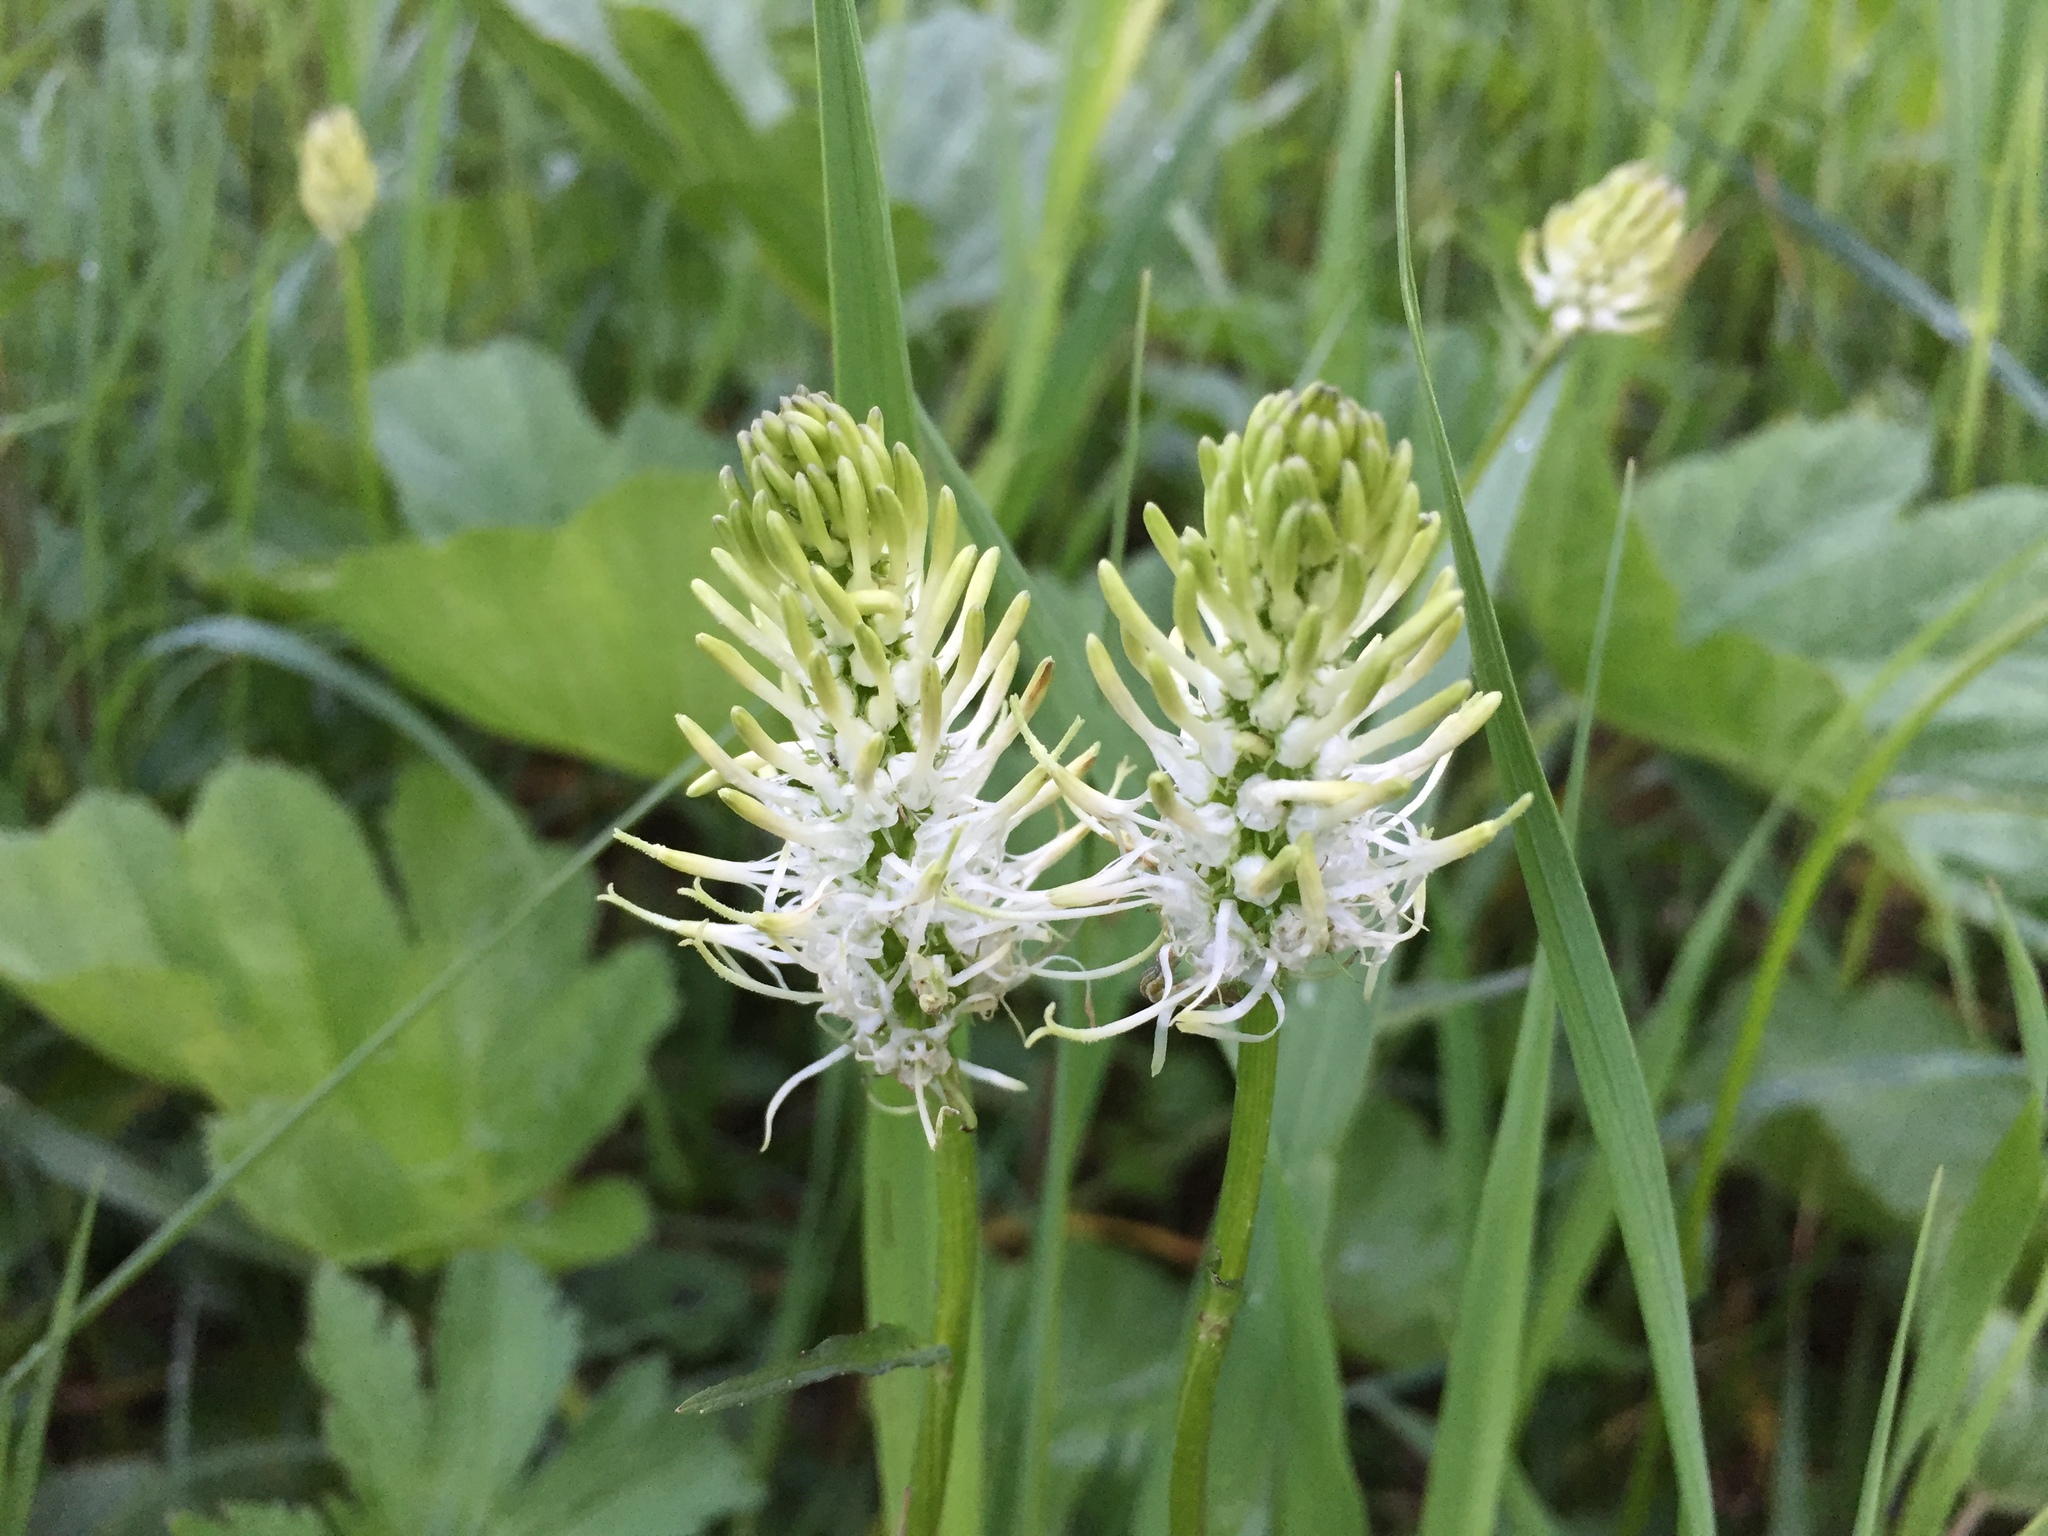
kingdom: Plantae
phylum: Tracheophyta
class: Magnoliopsida
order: Asterales
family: Campanulaceae
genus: Phyteuma
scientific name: Phyteuma spicatum
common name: Spiked rampion
